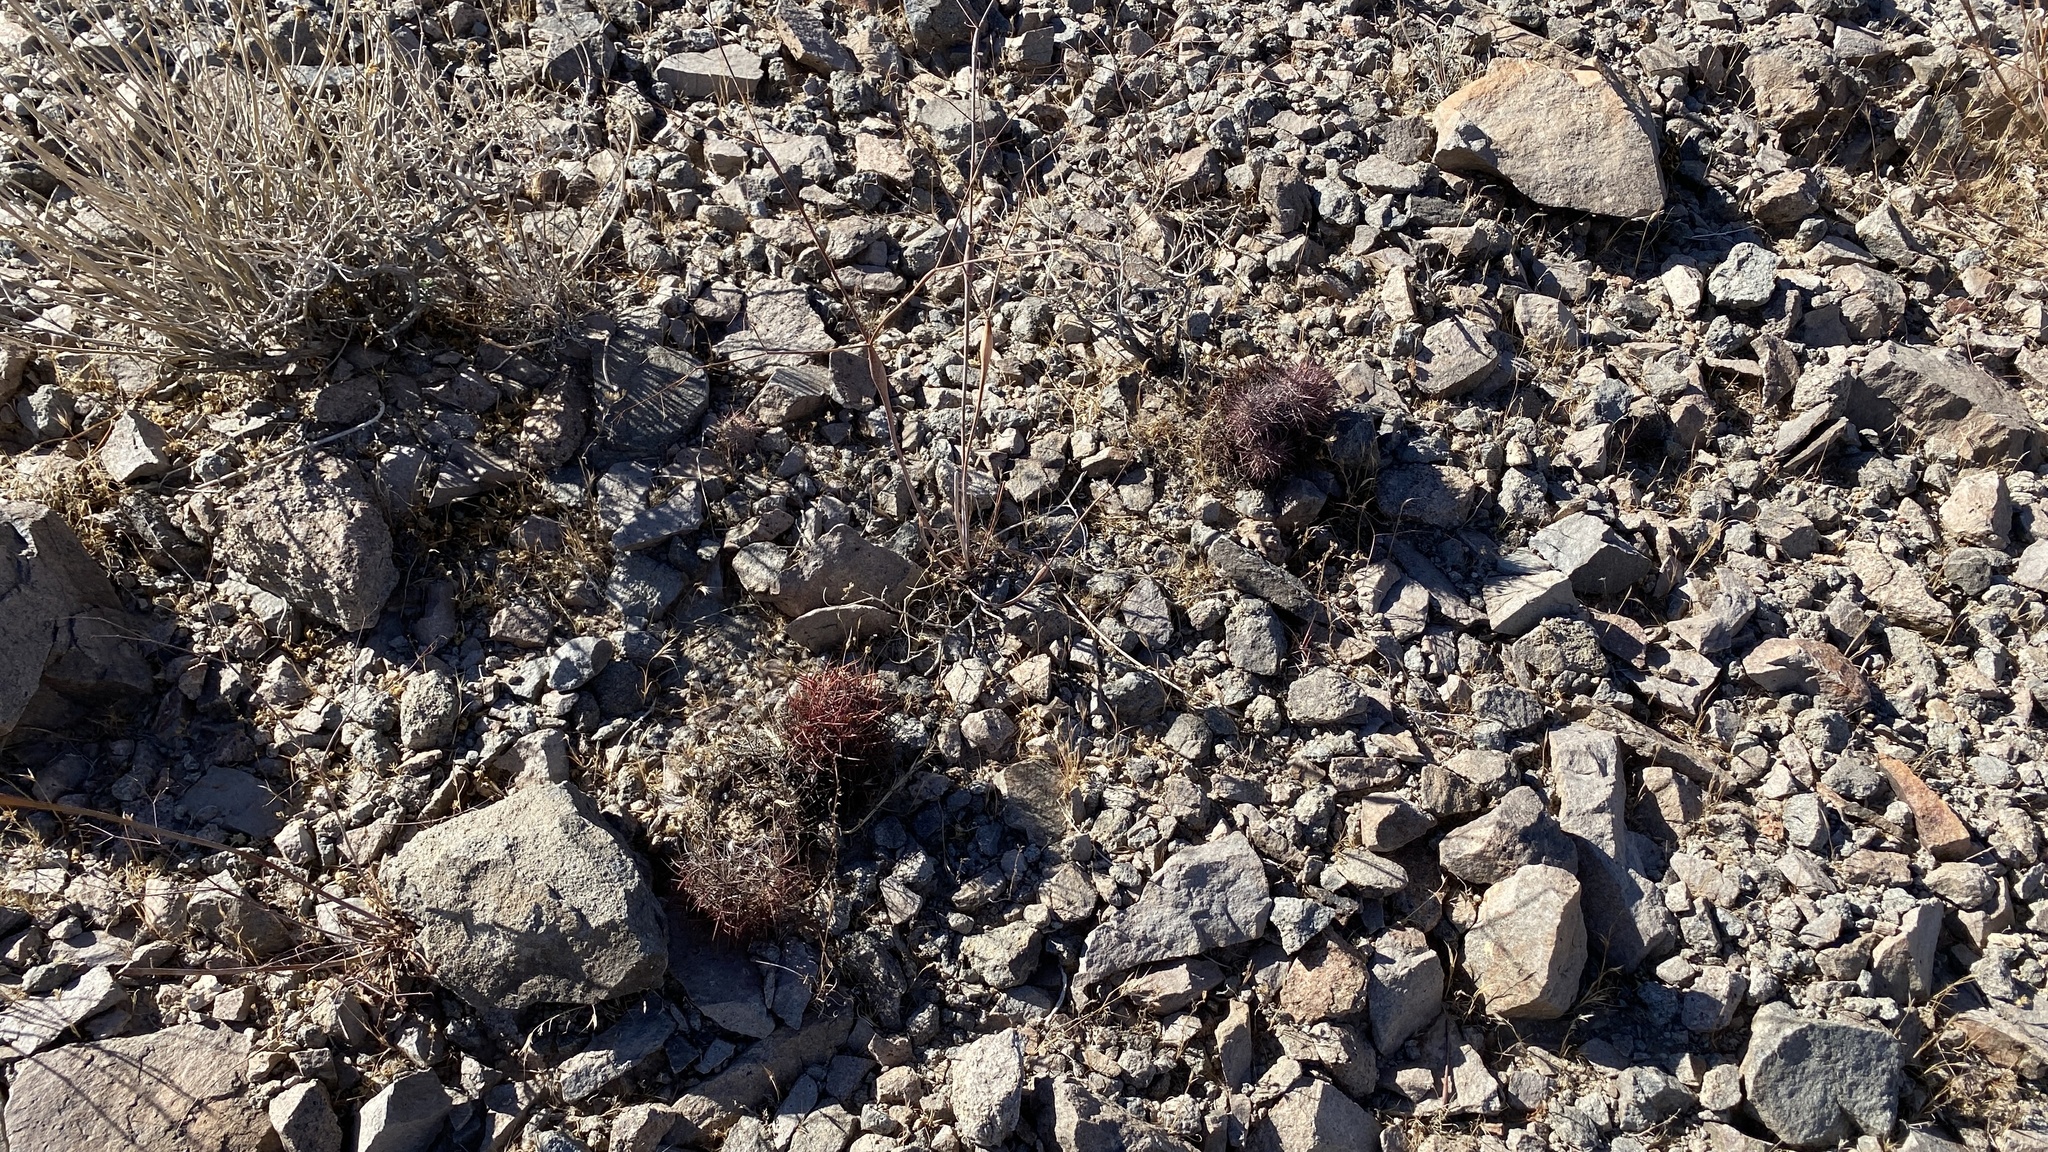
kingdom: Plantae
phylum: Tracheophyta
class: Magnoliopsida
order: Caryophyllales
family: Cactaceae
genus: Sclerocactus
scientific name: Sclerocactus johnsonii
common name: Eight-spine fishhook cactus
